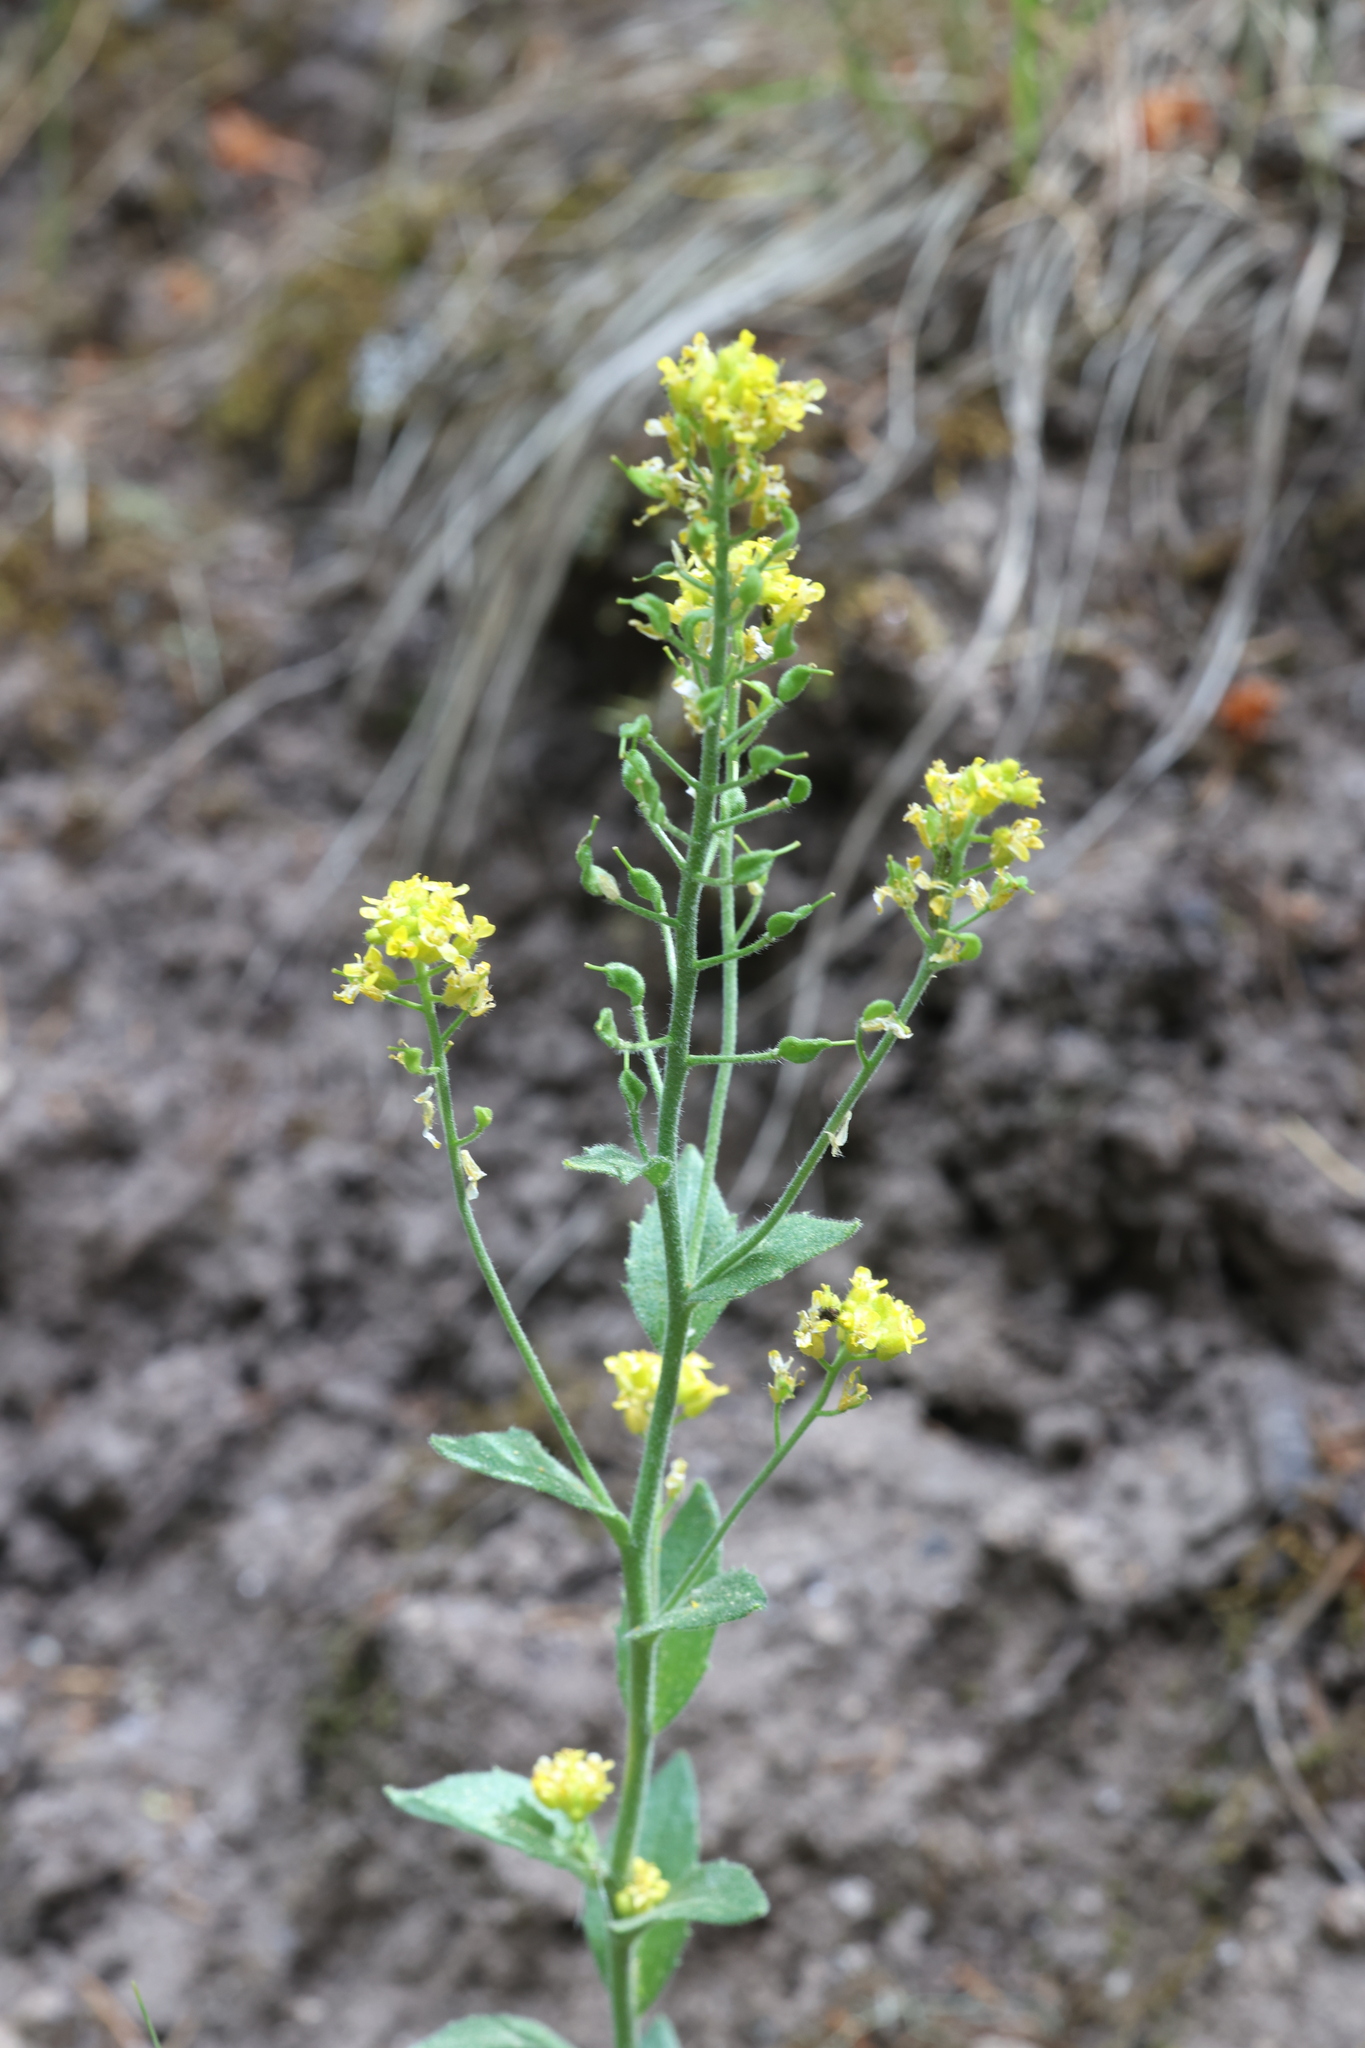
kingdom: Plantae
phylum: Tracheophyta
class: Magnoliopsida
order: Brassicales
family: Brassicaceae
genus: Draba
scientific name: Draba aurea
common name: Golden draba
